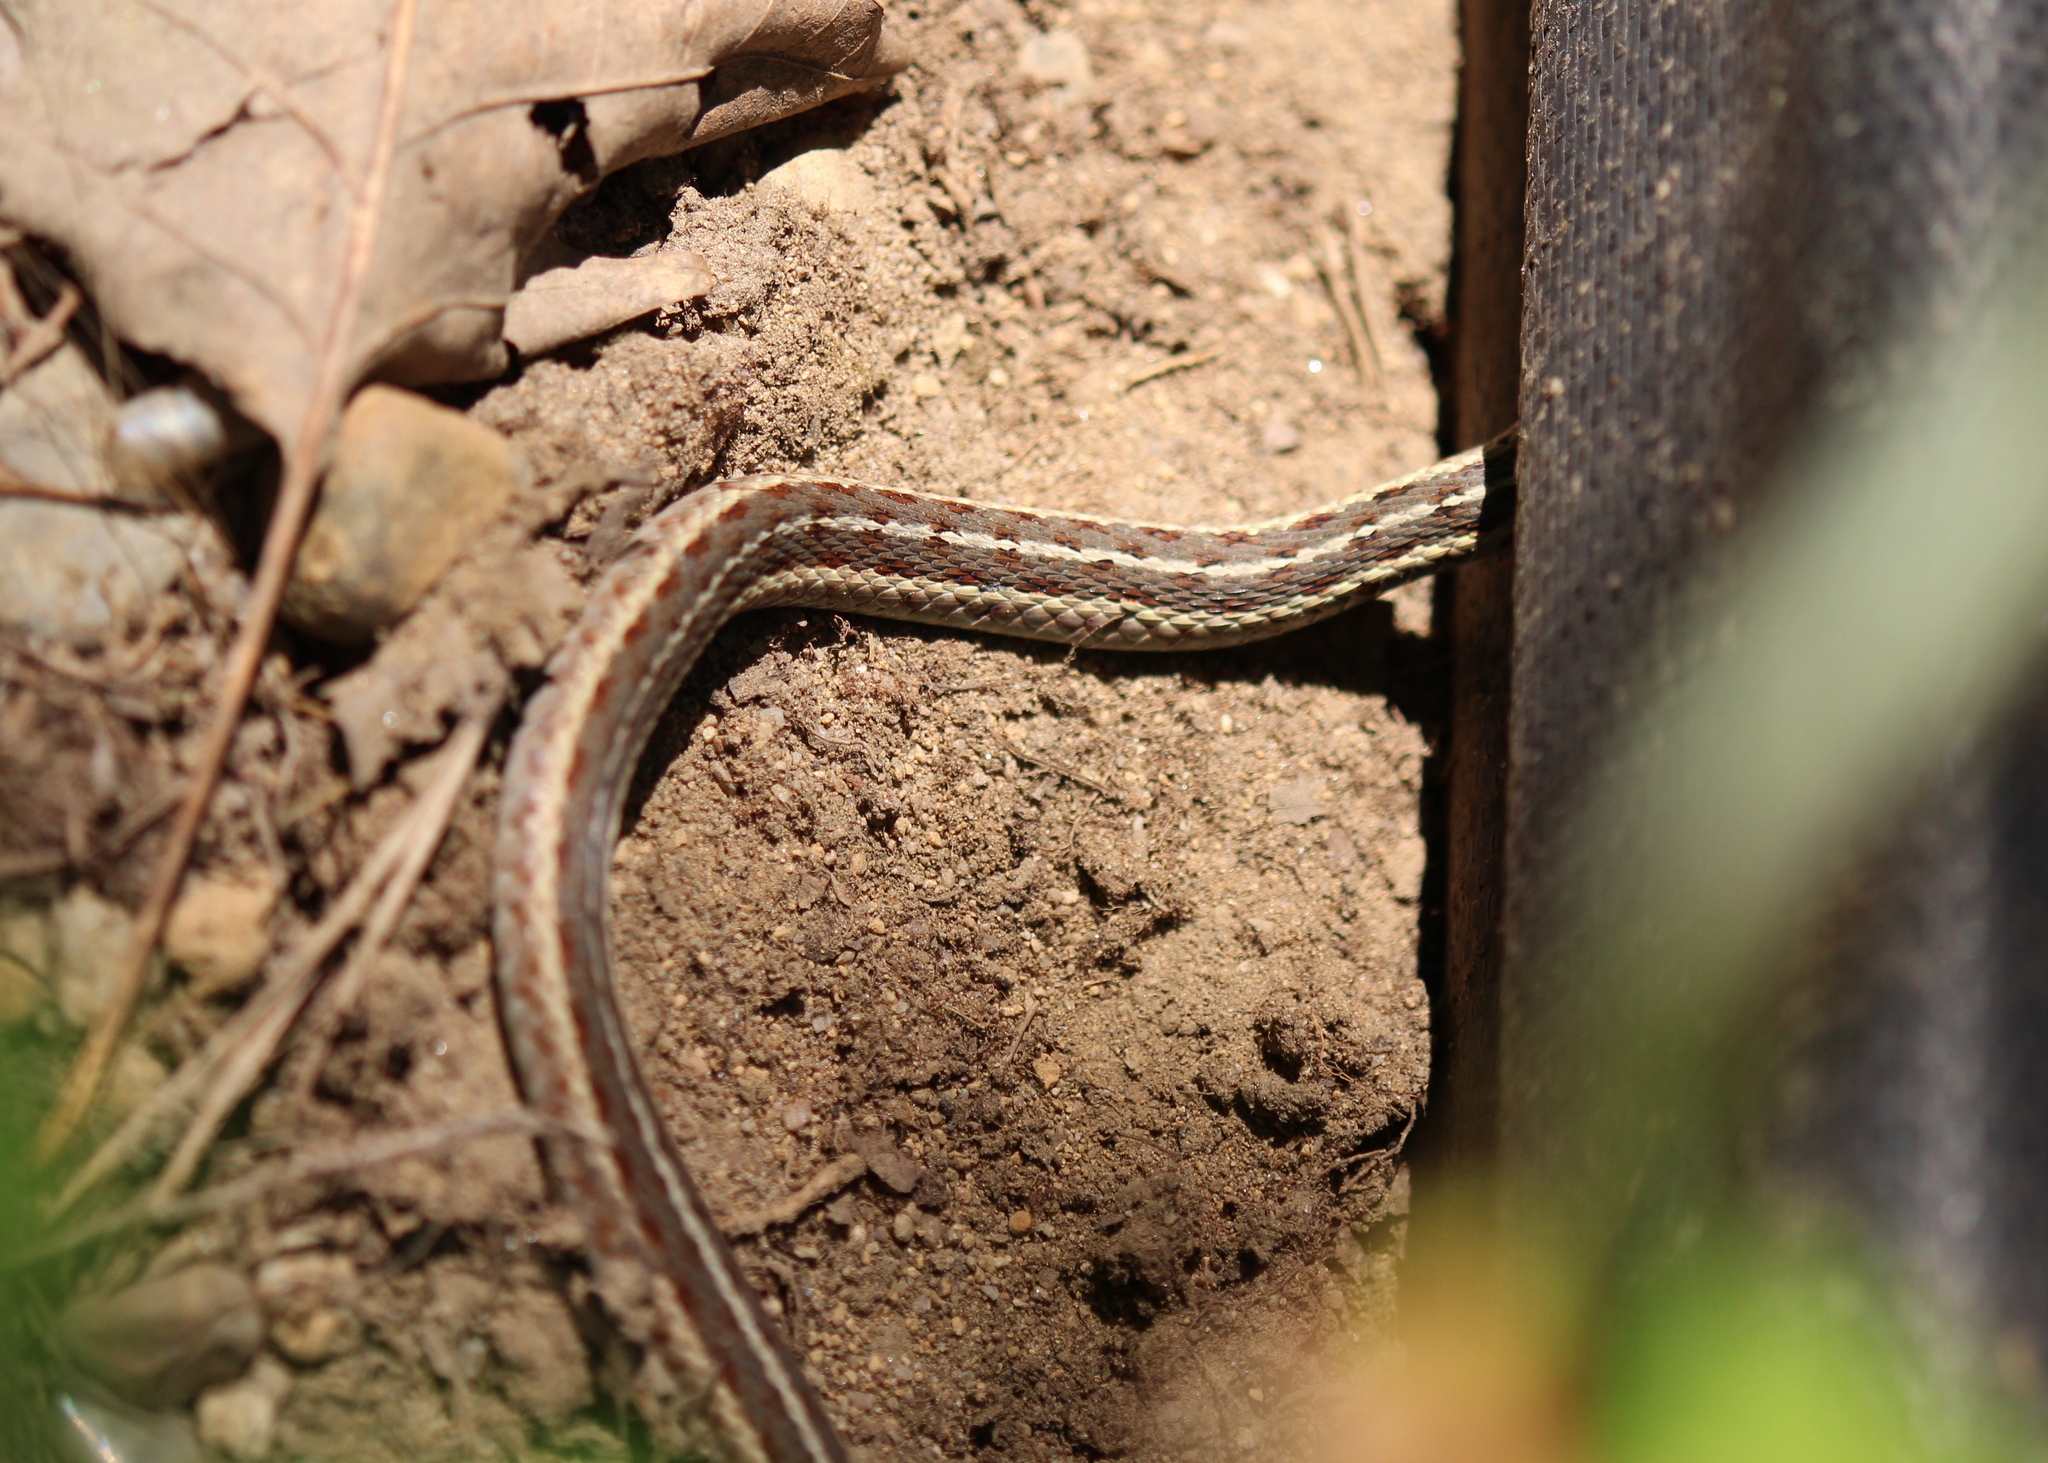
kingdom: Animalia
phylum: Chordata
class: Squamata
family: Colubridae
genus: Thamnophis
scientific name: Thamnophis sirtalis
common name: Common garter snake
